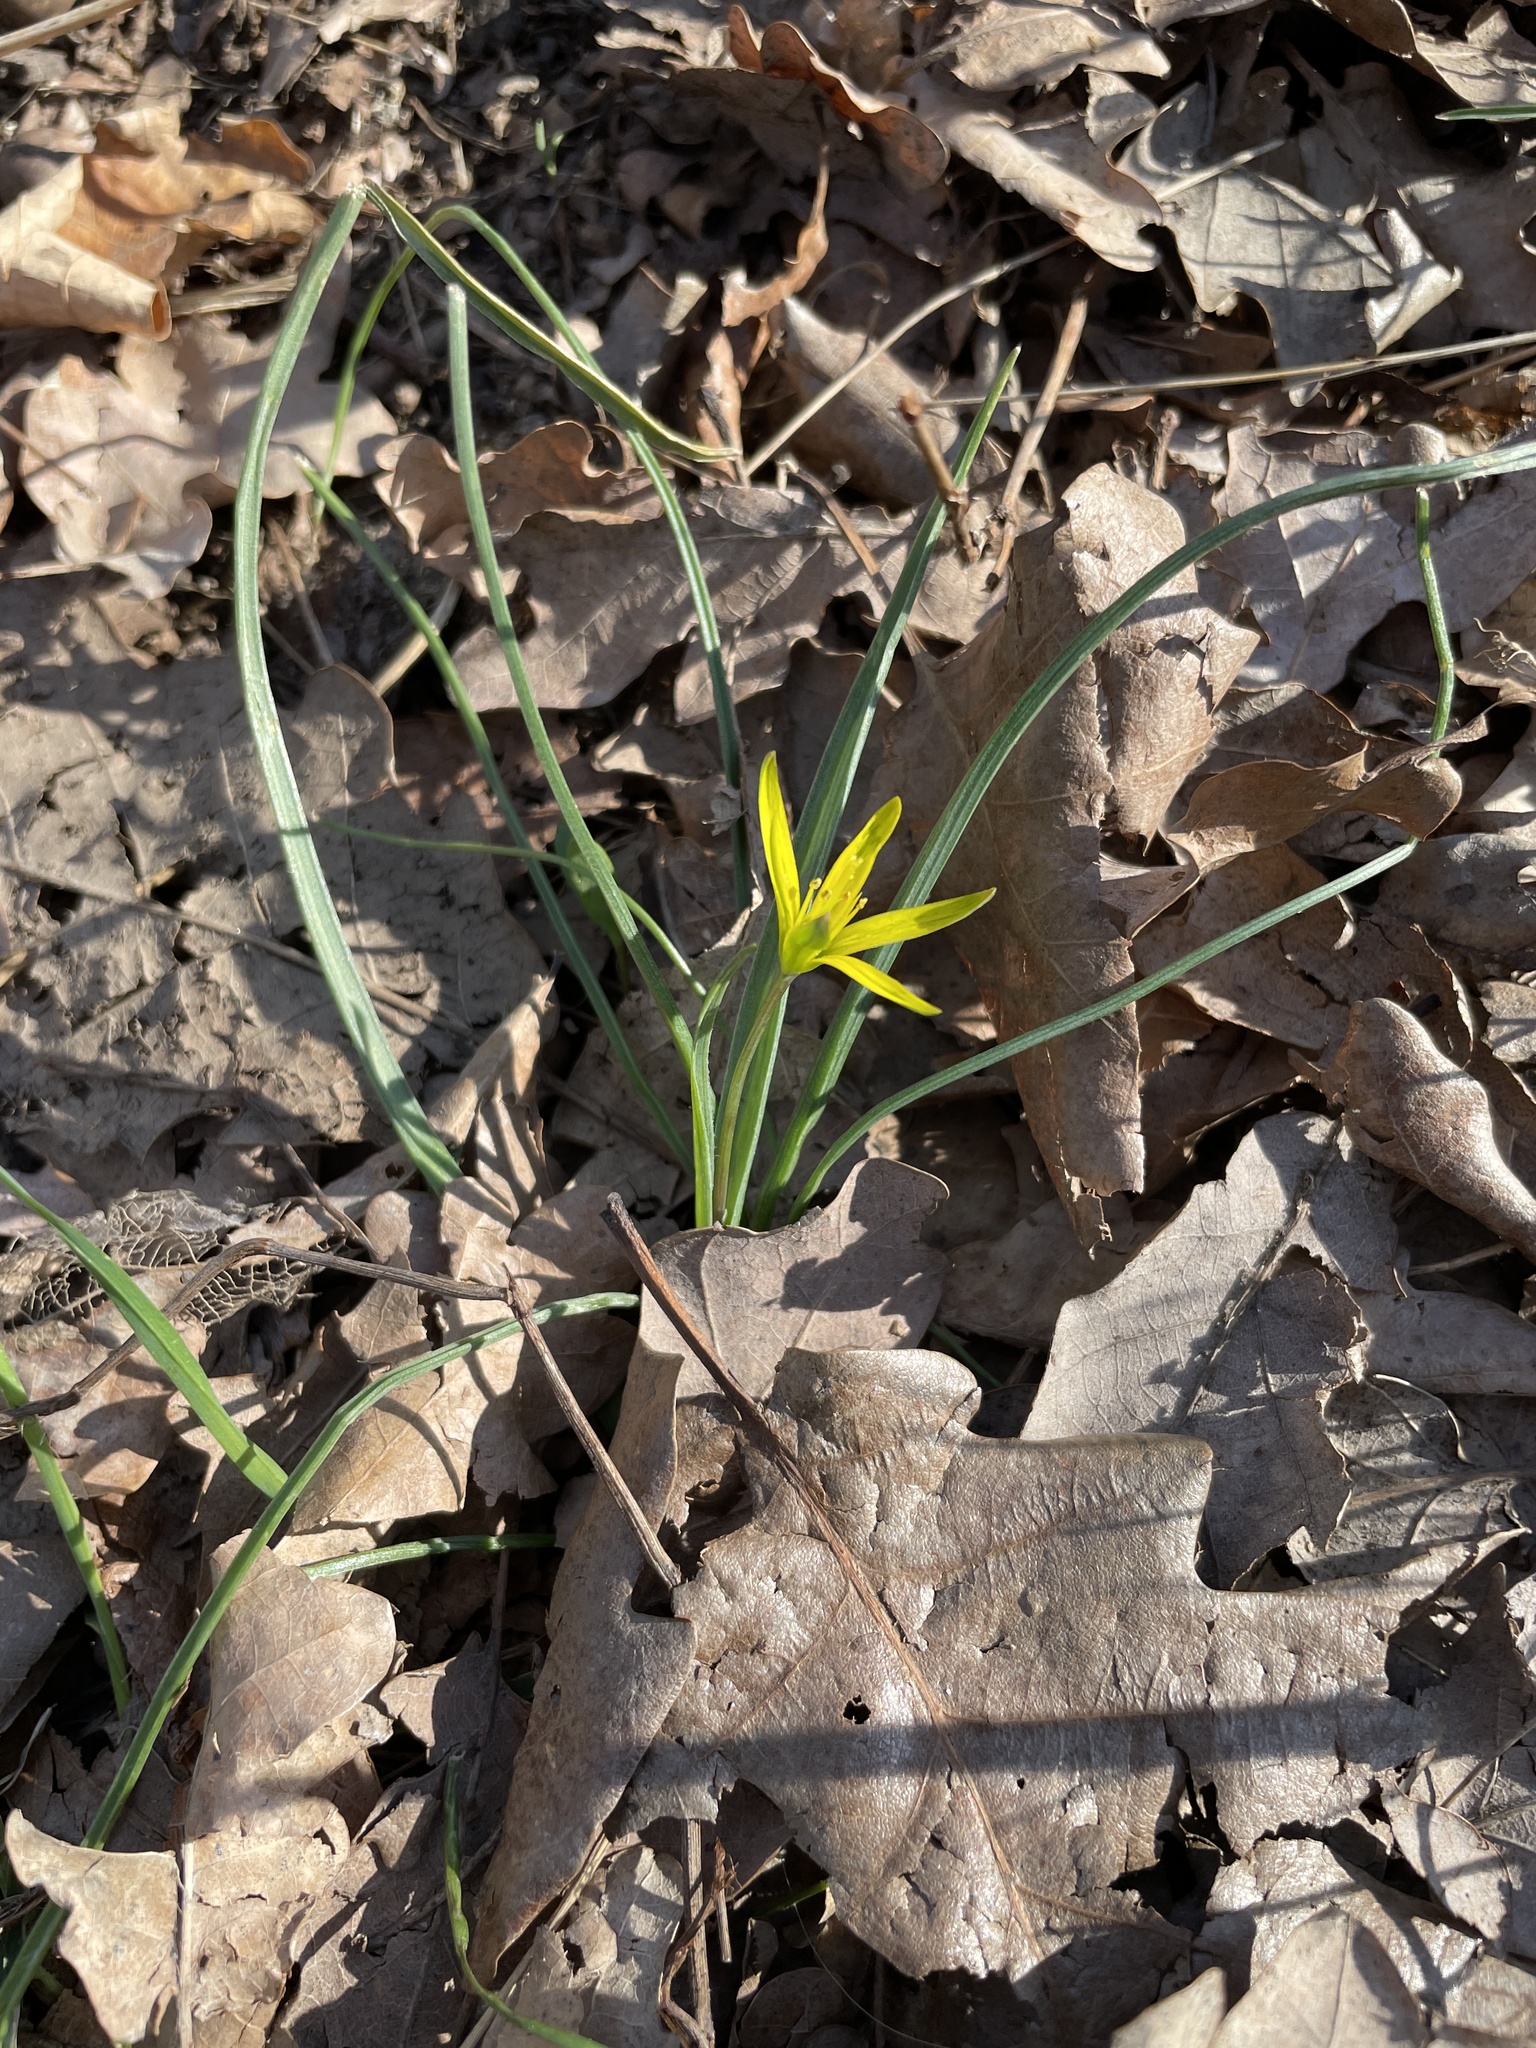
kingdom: Plantae
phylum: Tracheophyta
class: Liliopsida
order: Liliales
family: Liliaceae
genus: Gagea
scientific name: Gagea pratensis
